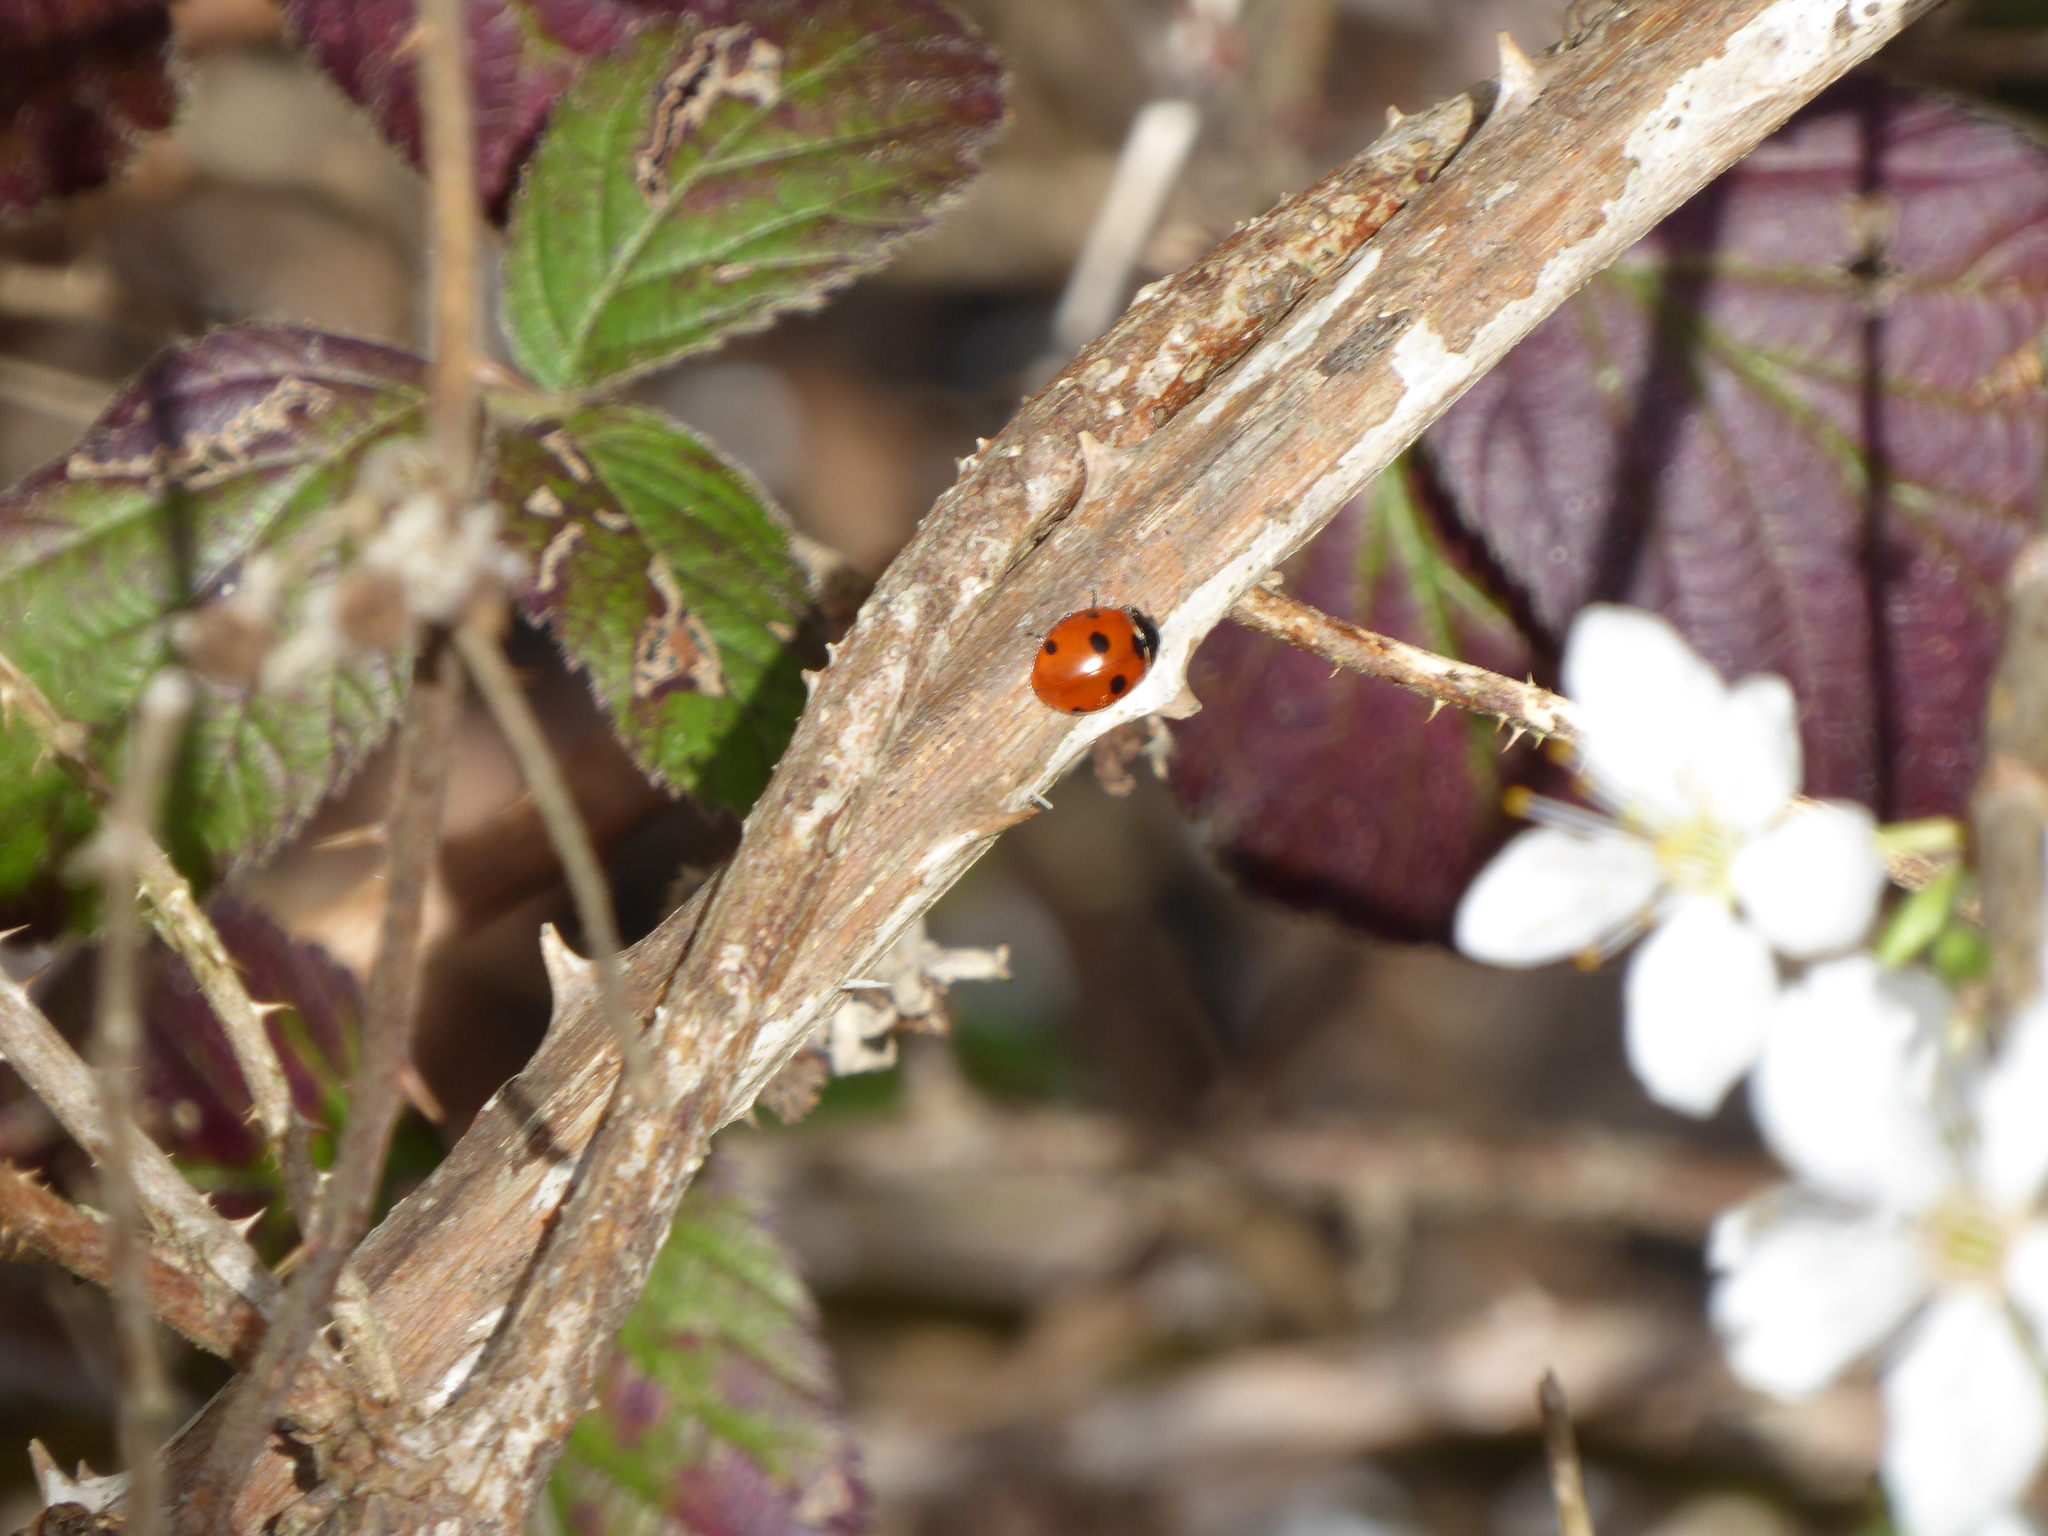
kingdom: Animalia
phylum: Arthropoda
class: Insecta
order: Coleoptera
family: Coccinellidae
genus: Coccinella
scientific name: Coccinella septempunctata
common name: Sevenspotted lady beetle
